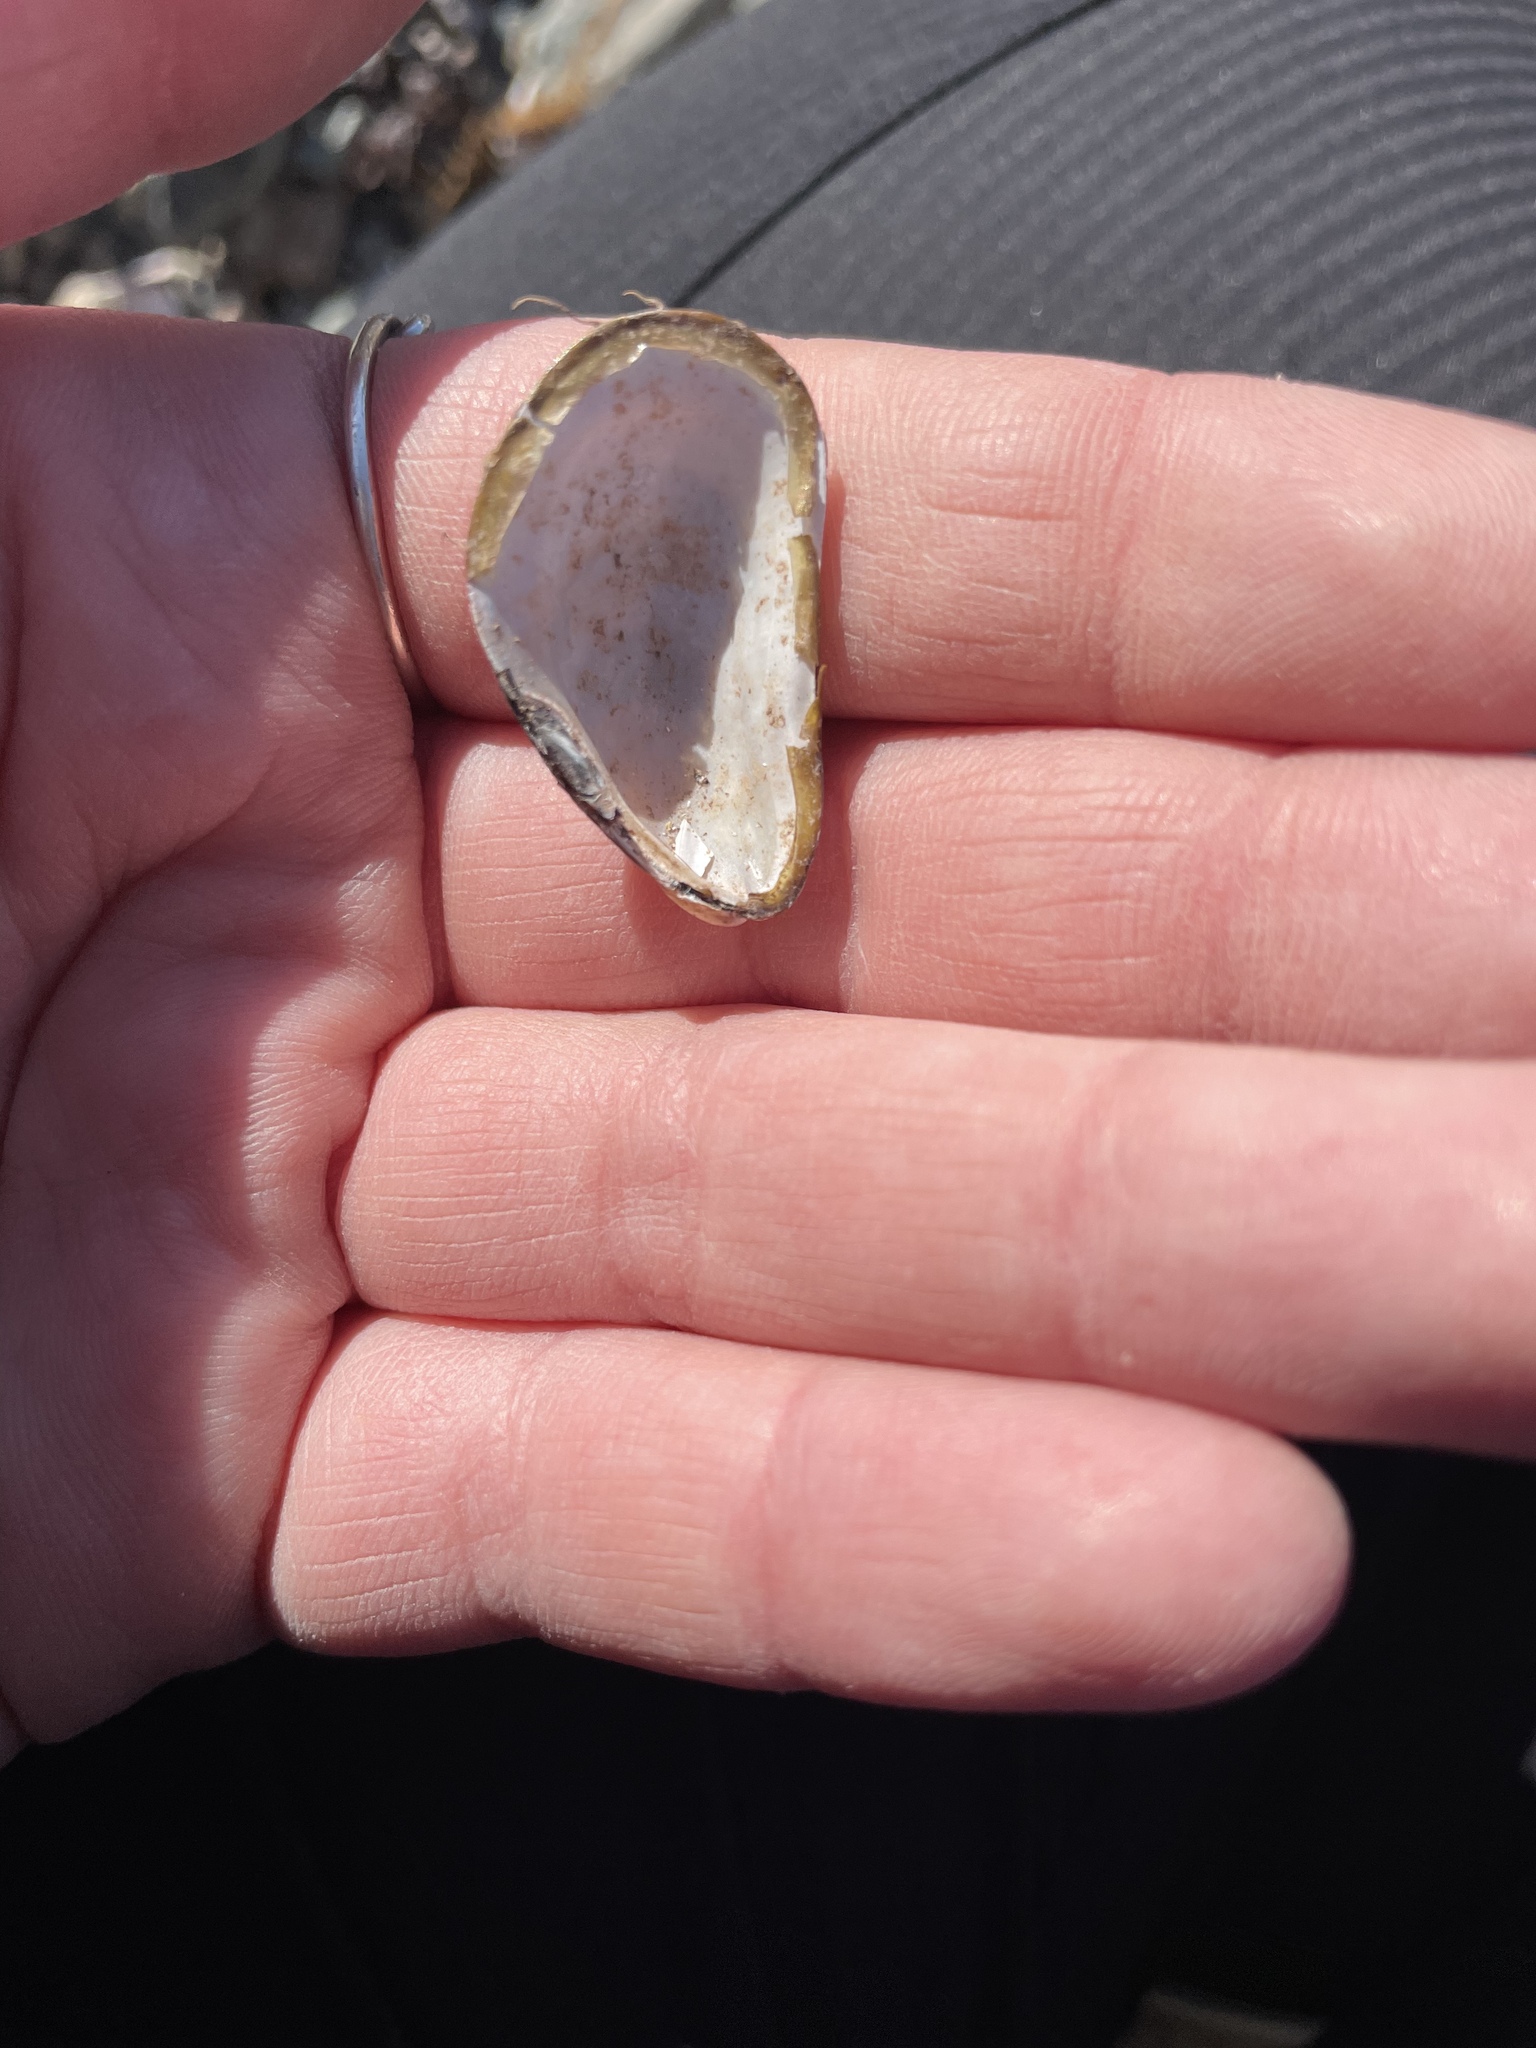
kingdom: Animalia
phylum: Mollusca
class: Bivalvia
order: Mytilida
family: Mytilidae
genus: Modiolus
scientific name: Modiolus modiolus
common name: Horse-mussel
